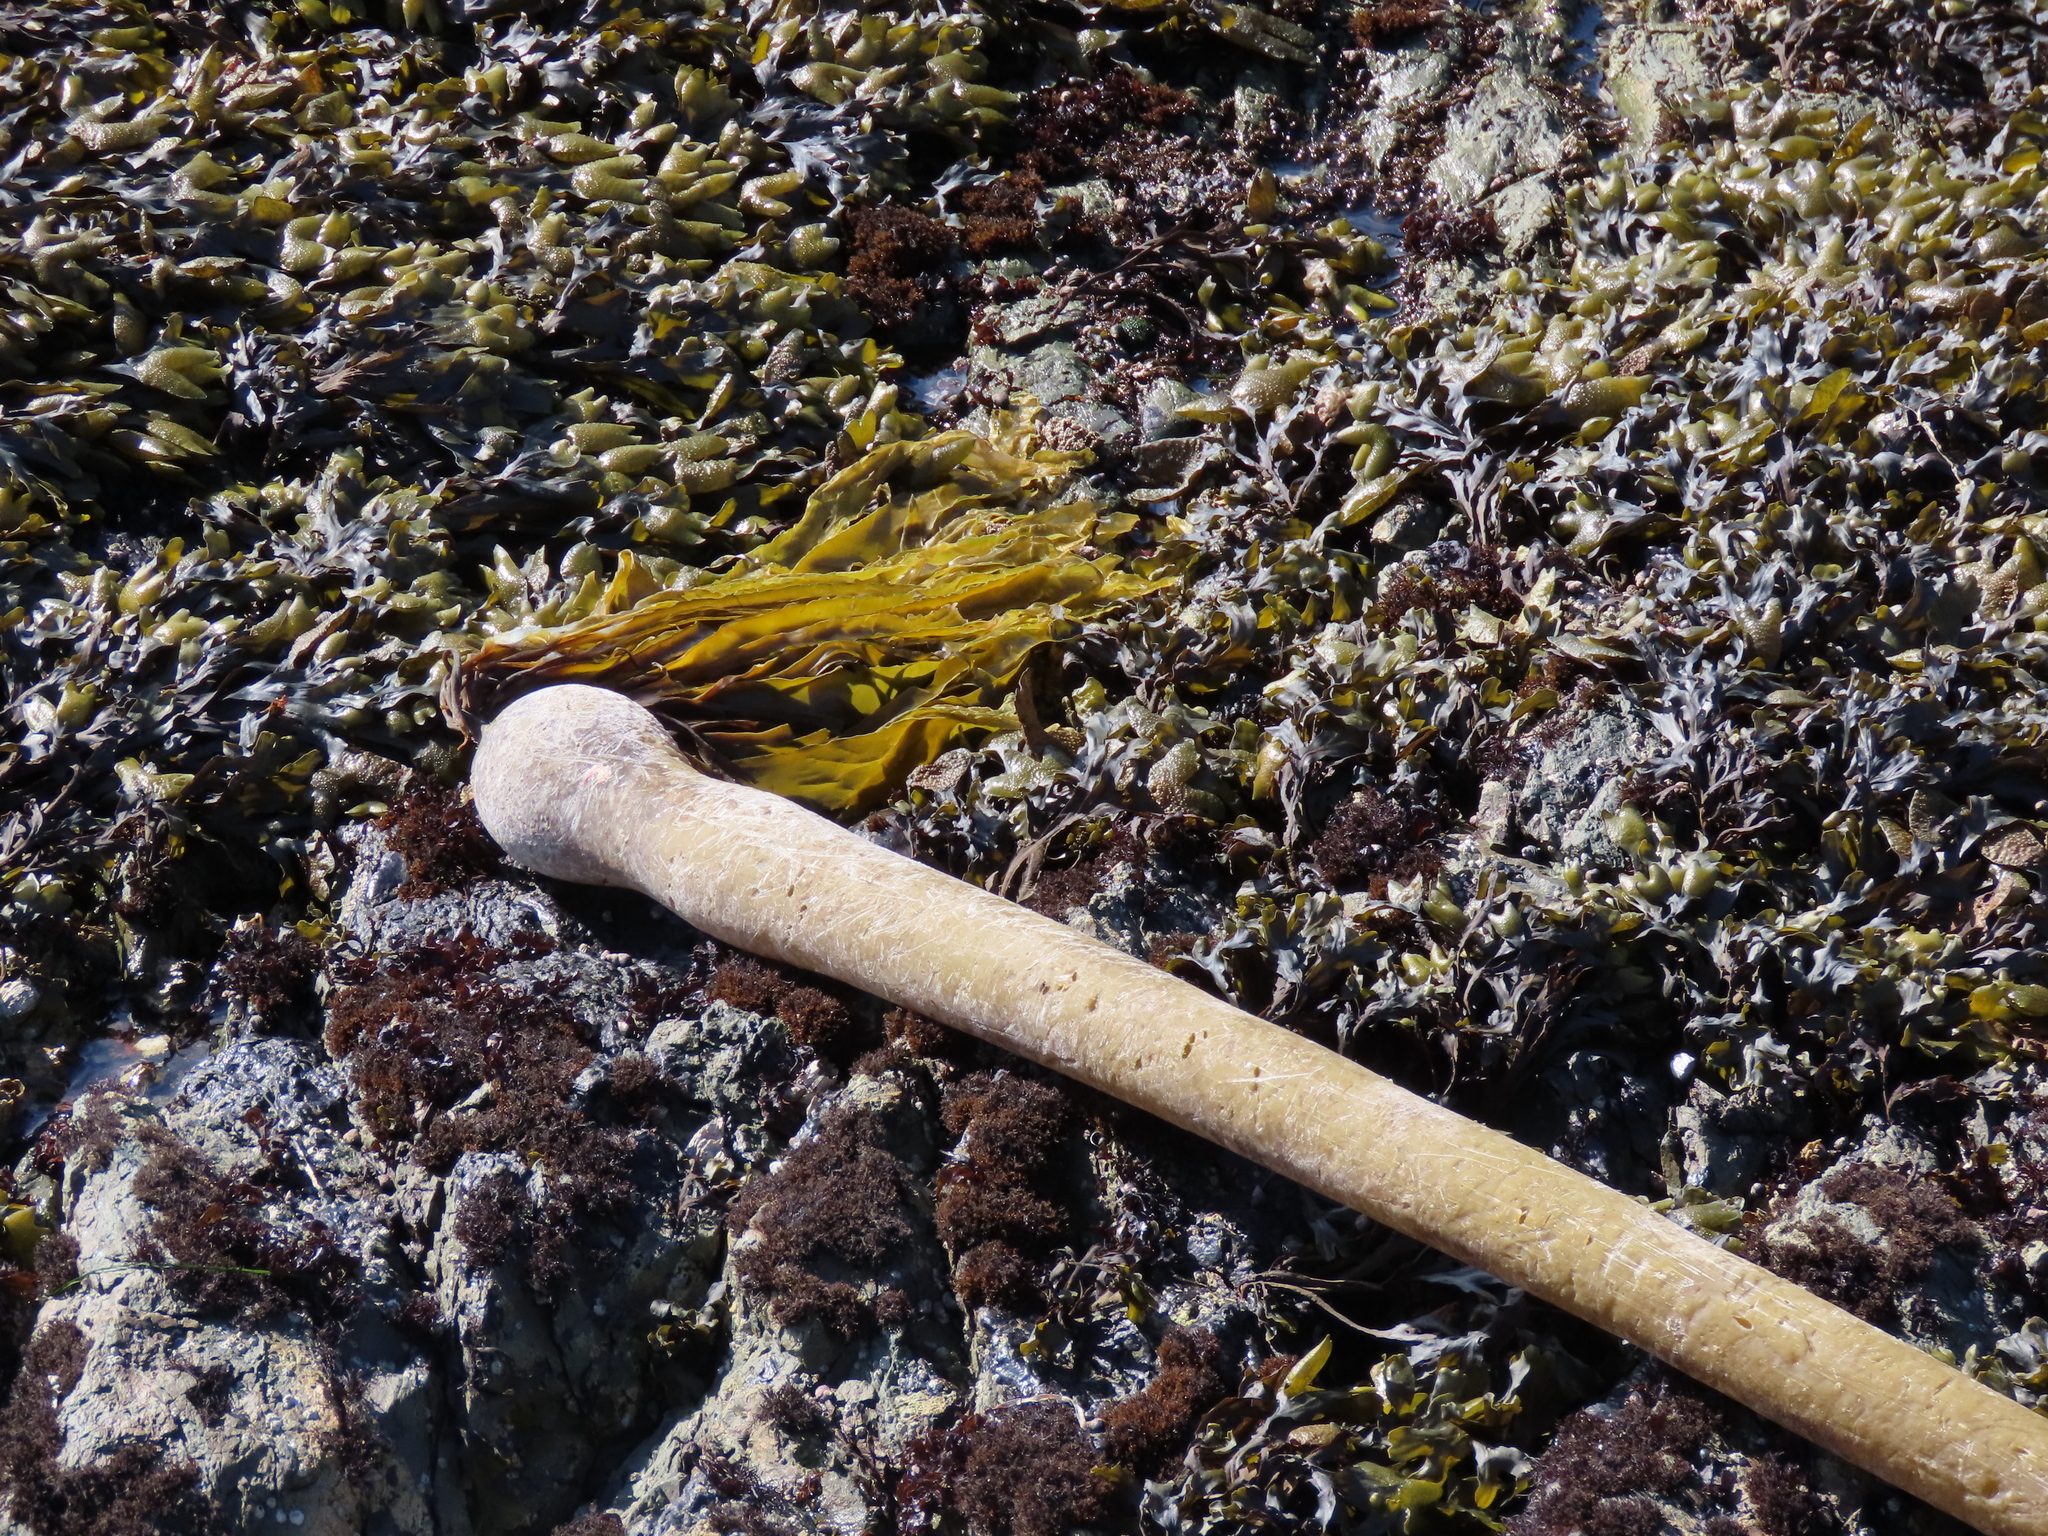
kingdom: Chromista
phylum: Ochrophyta
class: Phaeophyceae
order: Laminariales
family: Laminariaceae
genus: Nereocystis
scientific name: Nereocystis luetkeana
